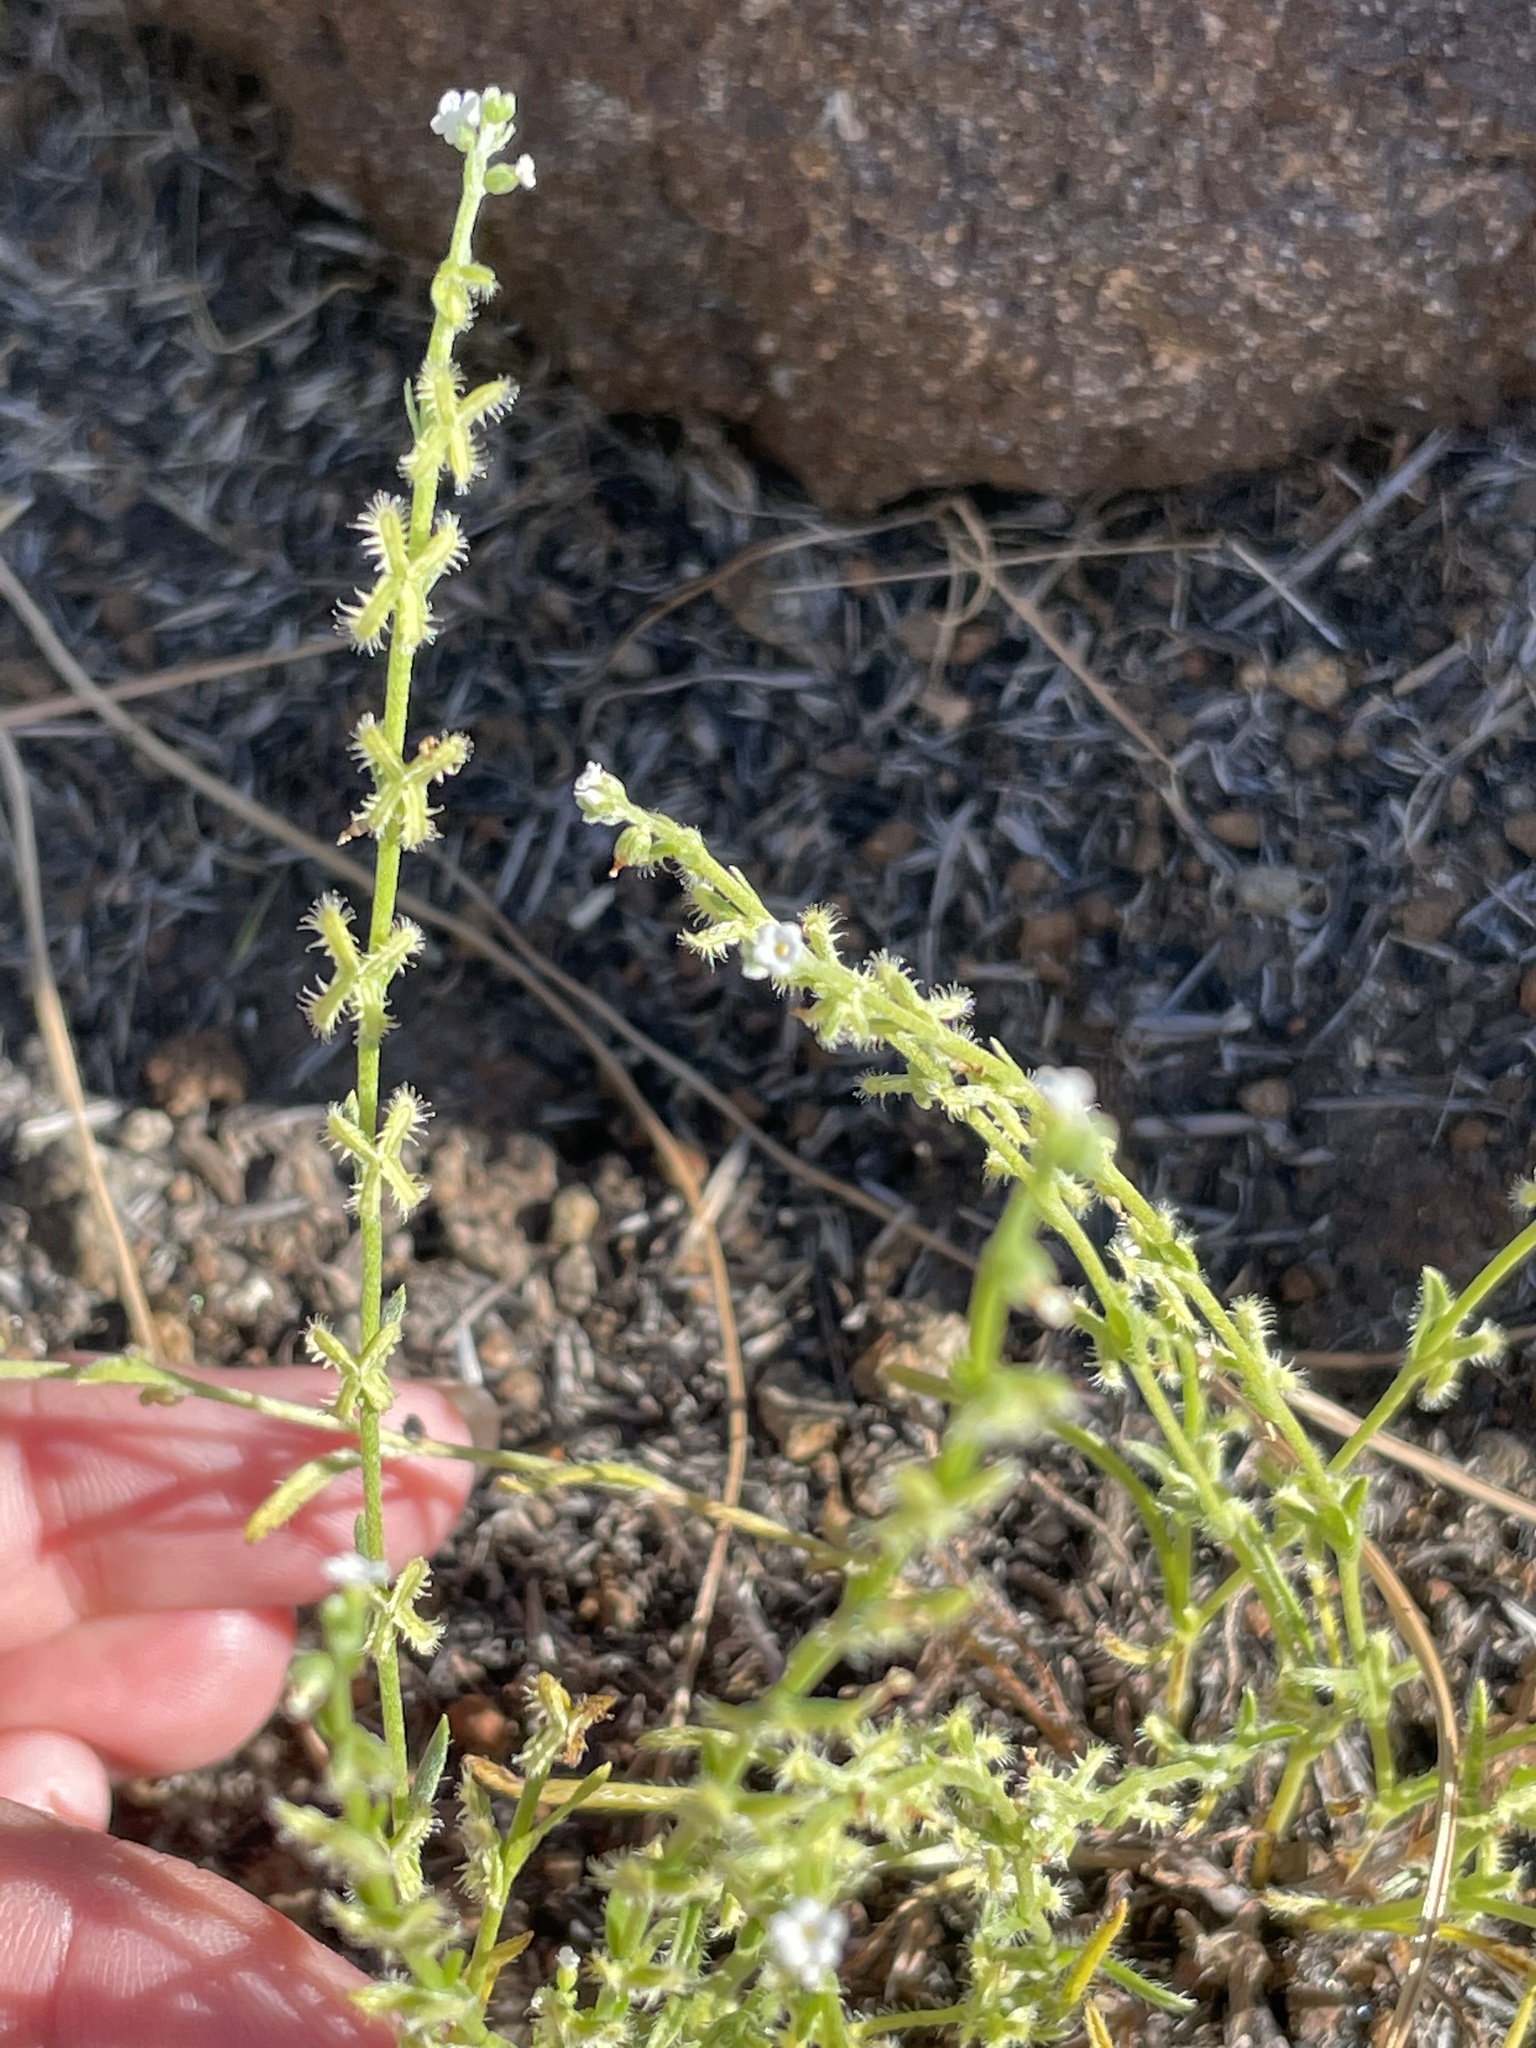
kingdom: Plantae
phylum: Tracheophyta
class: Magnoliopsida
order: Boraginales
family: Boraginaceae
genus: Pectocarya
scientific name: Pectocarya linearis
